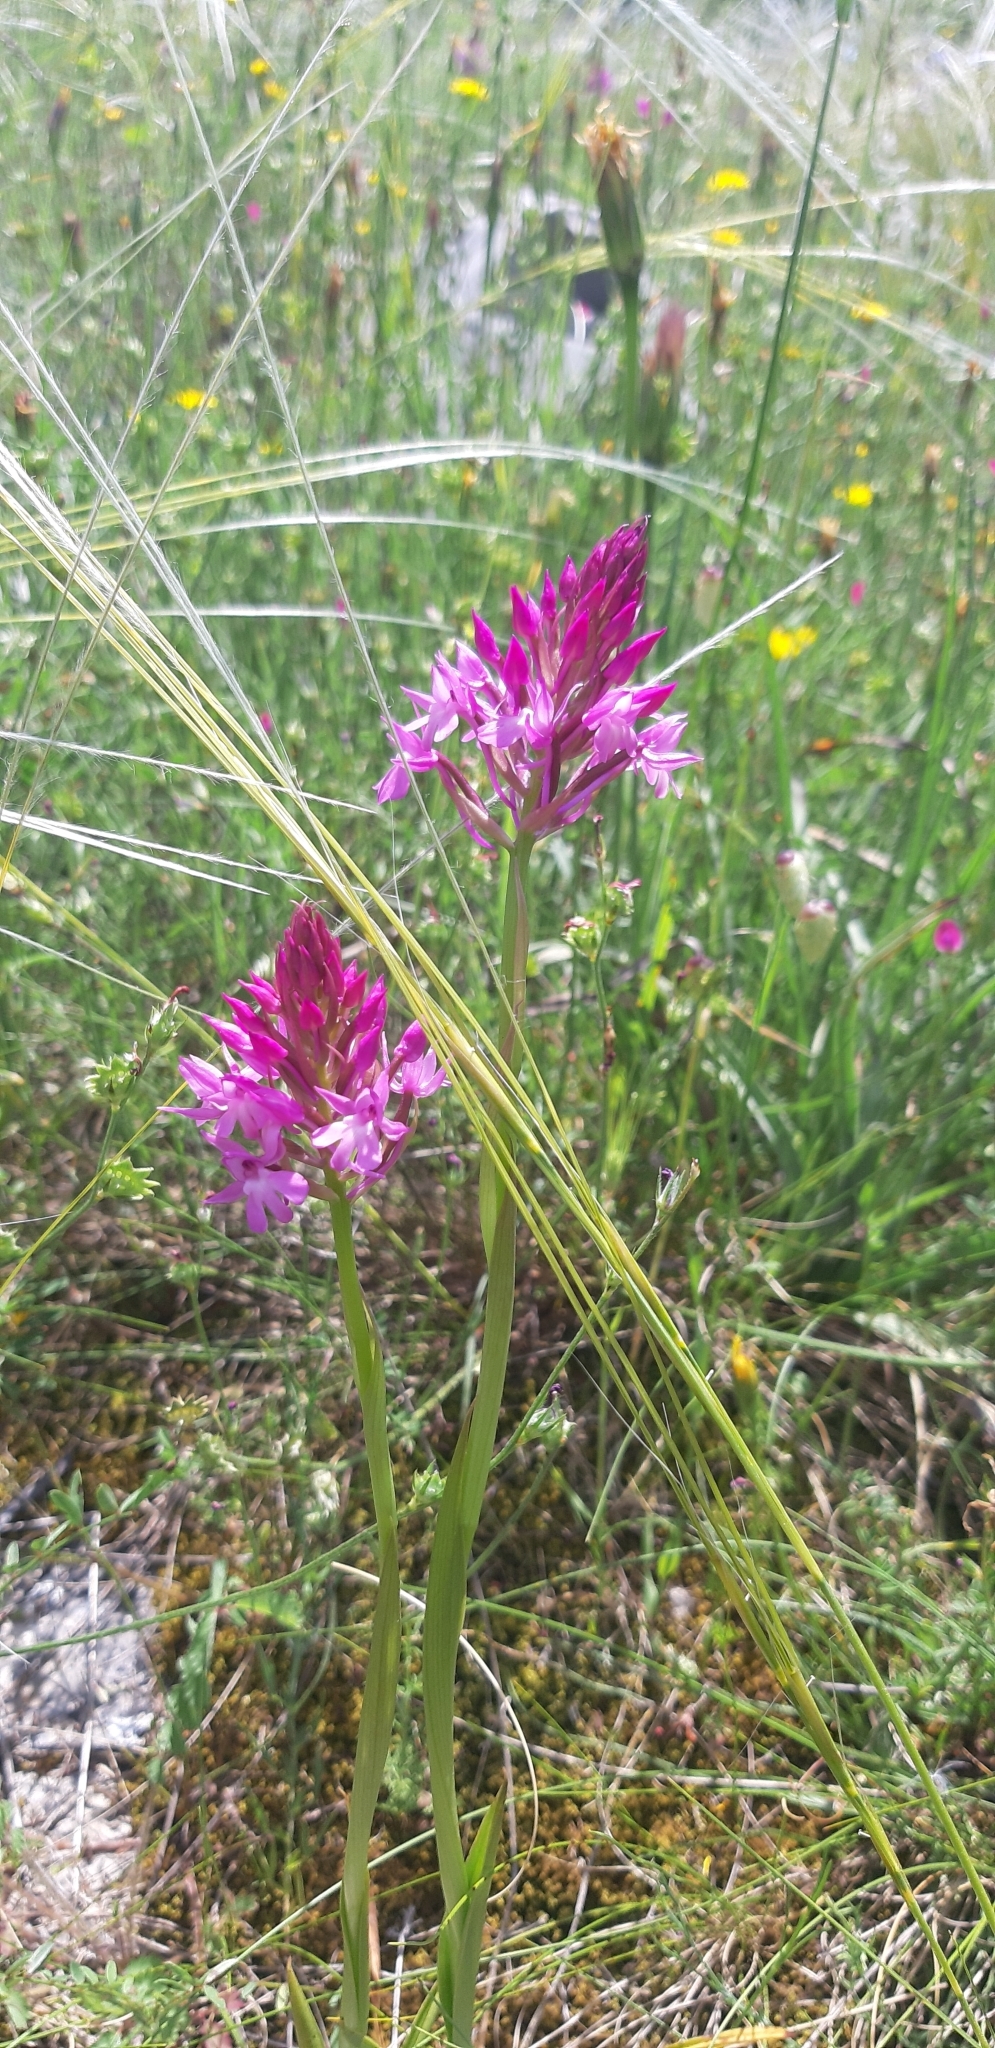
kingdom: Plantae
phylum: Tracheophyta
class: Liliopsida
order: Asparagales
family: Orchidaceae
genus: Anacamptis
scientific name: Anacamptis pyramidalis
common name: Pyramidal orchid
